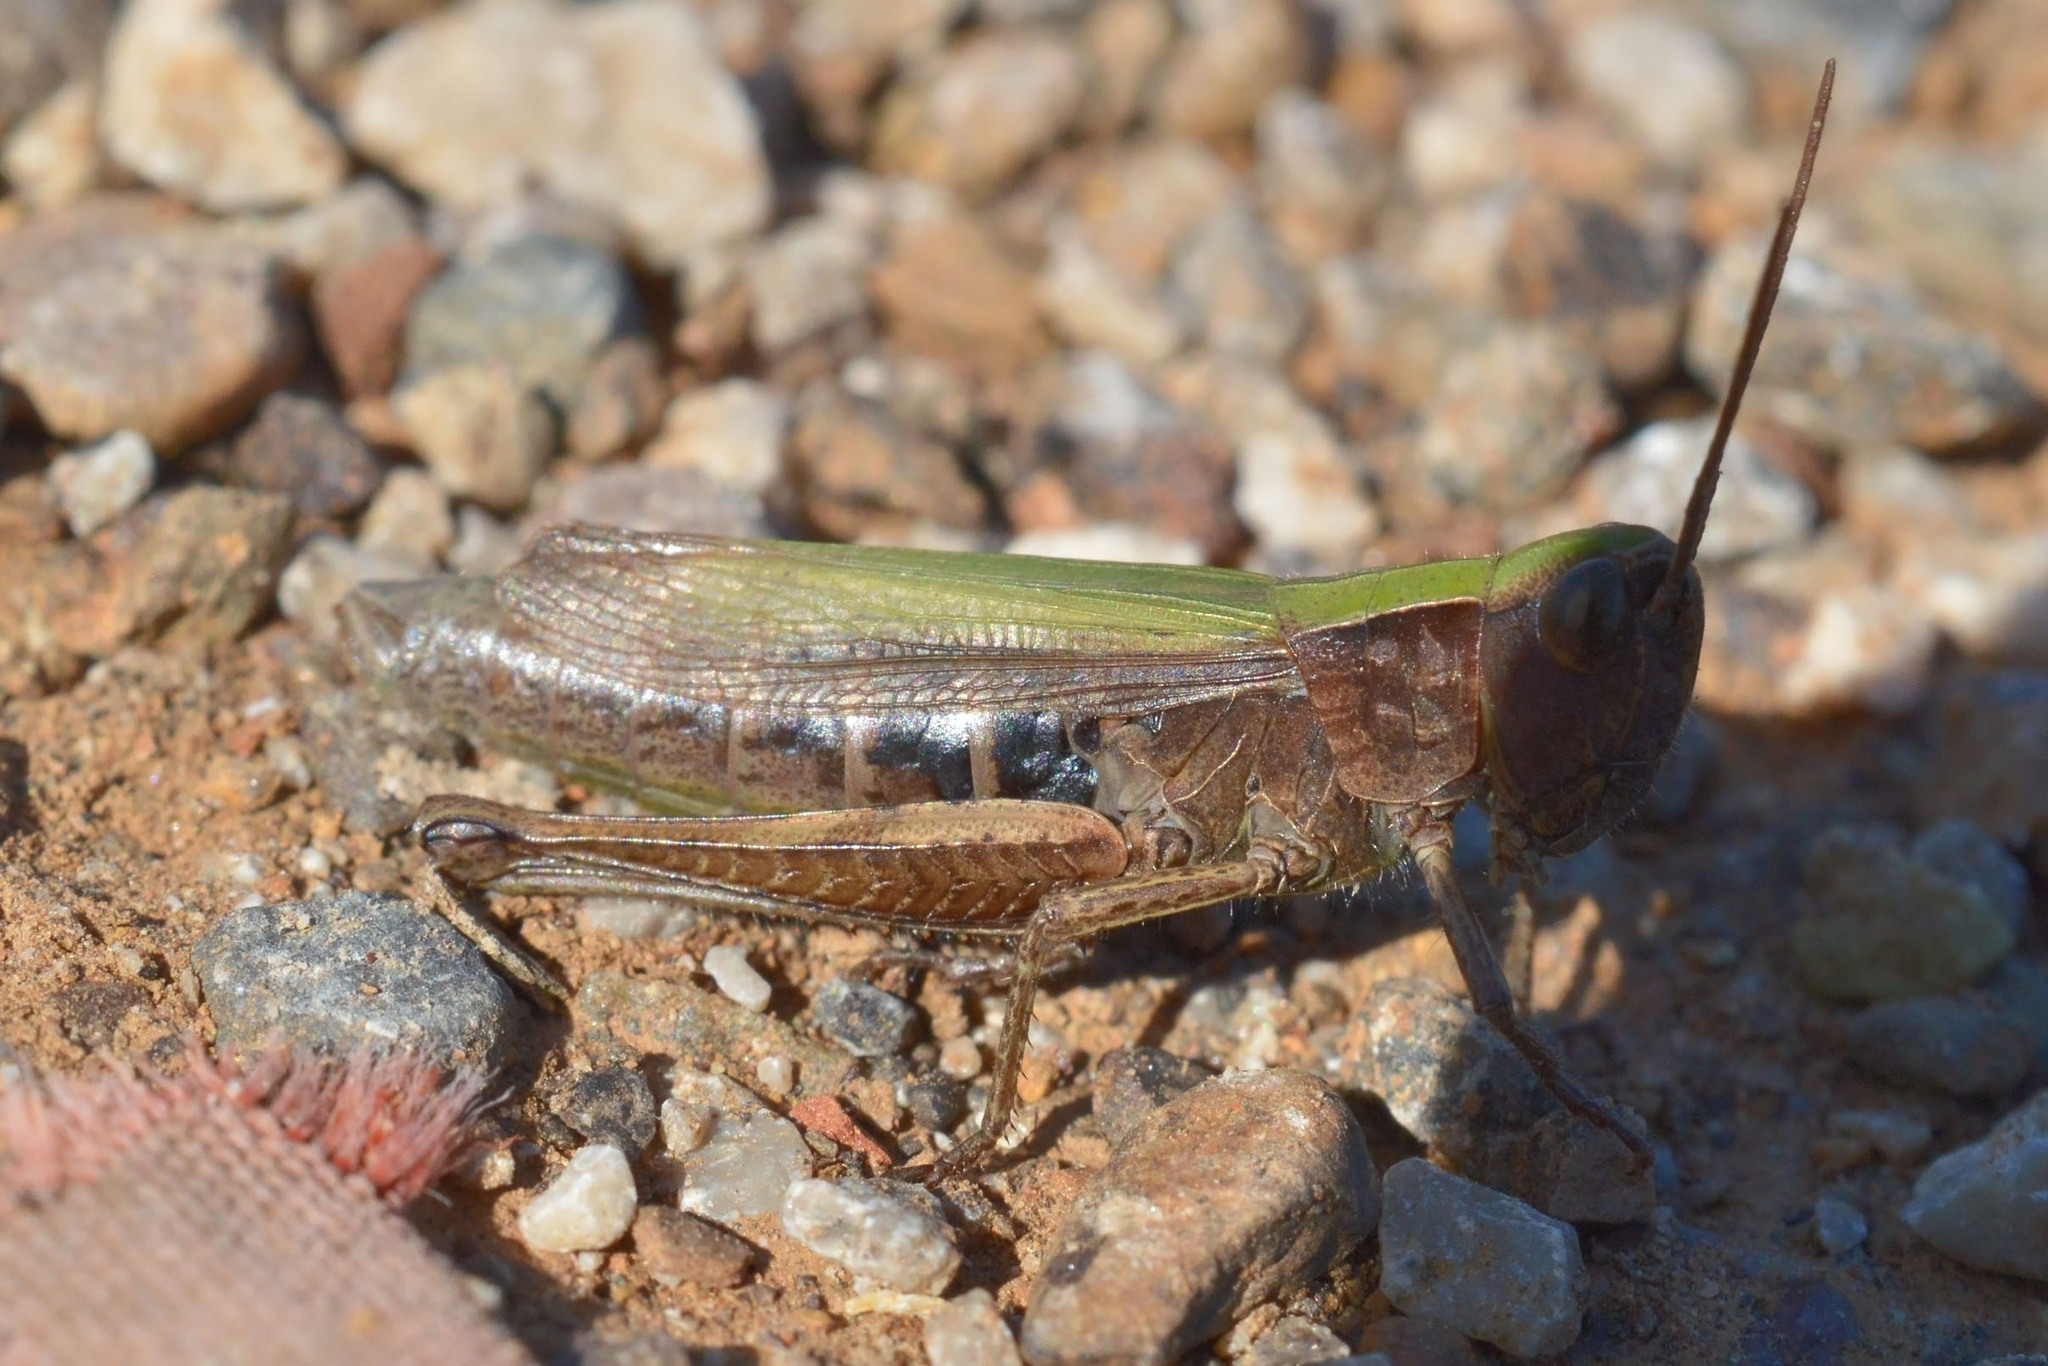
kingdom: Animalia
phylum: Arthropoda
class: Insecta
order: Orthoptera
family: Acrididae
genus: Chorthippus
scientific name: Chorthippus dorsatus
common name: Steppe grasshopper
